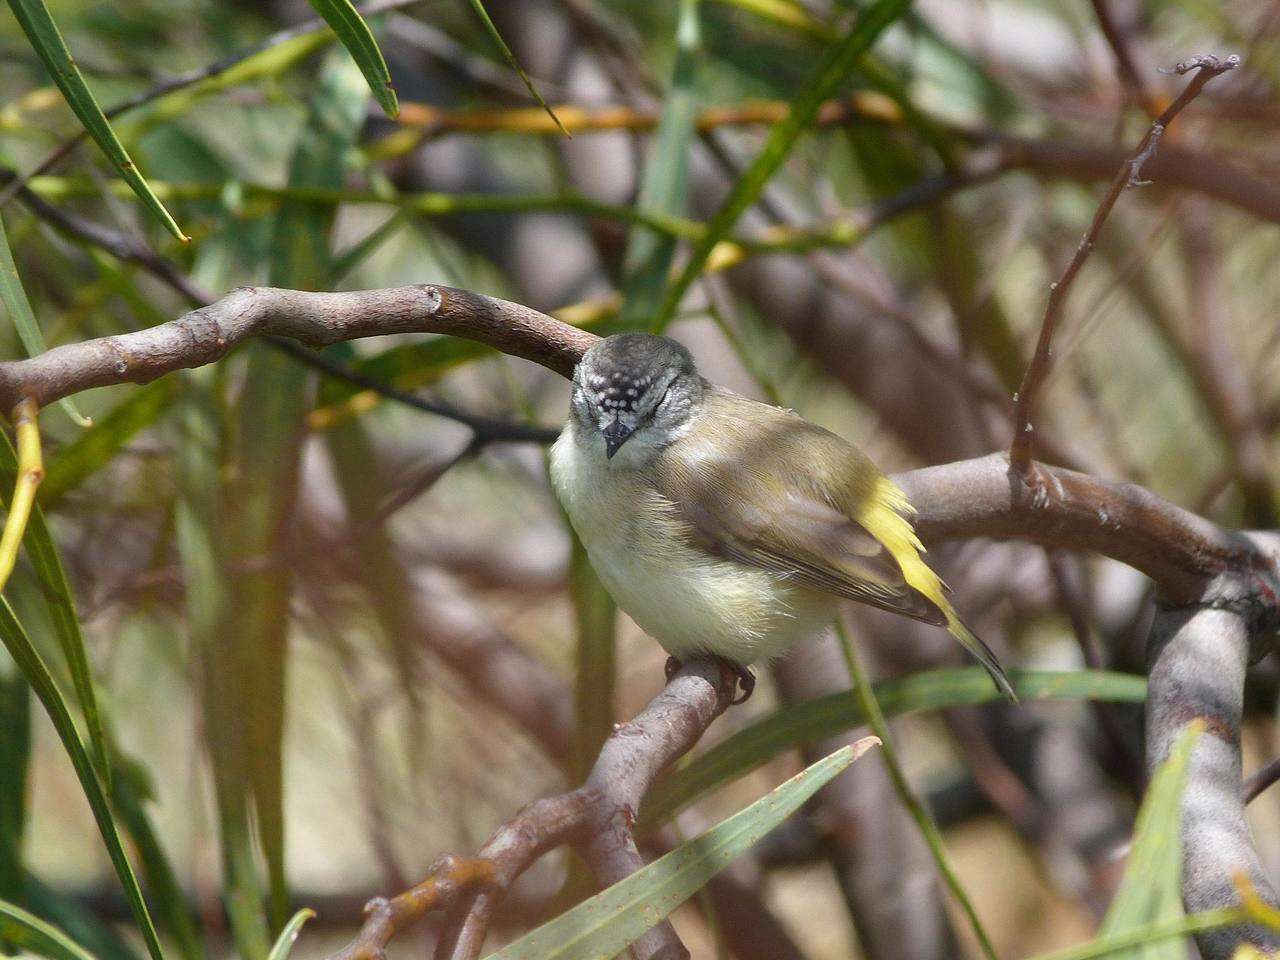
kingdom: Animalia
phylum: Chordata
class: Aves
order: Passeriformes
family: Acanthizidae
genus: Acanthiza
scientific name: Acanthiza chrysorrhoa
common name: Yellow-rumped thornbill
